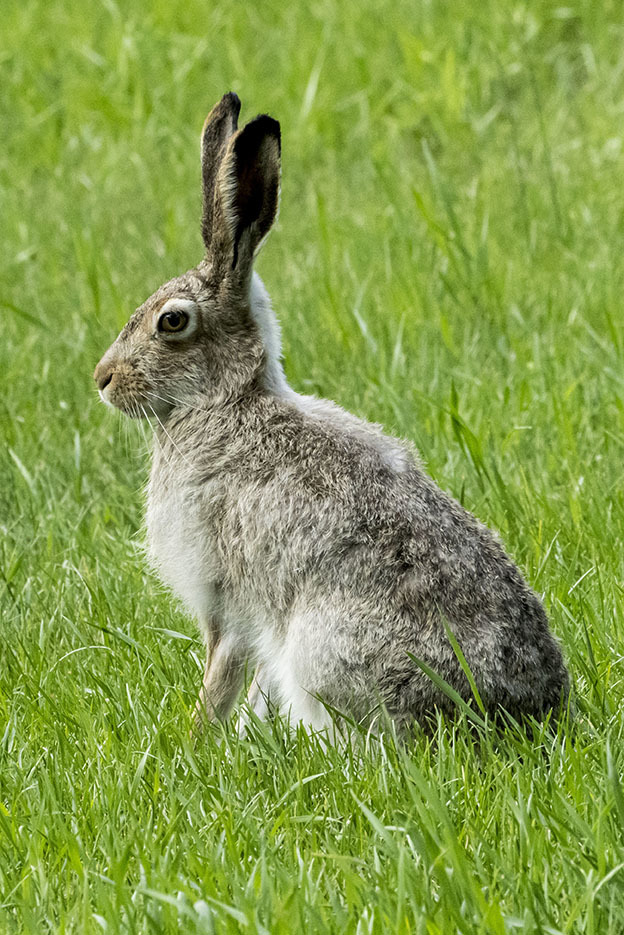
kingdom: Animalia
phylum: Chordata
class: Mammalia
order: Lagomorpha
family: Leporidae
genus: Lepus
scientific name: Lepus townsendii
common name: White-tailed jackrabbit
